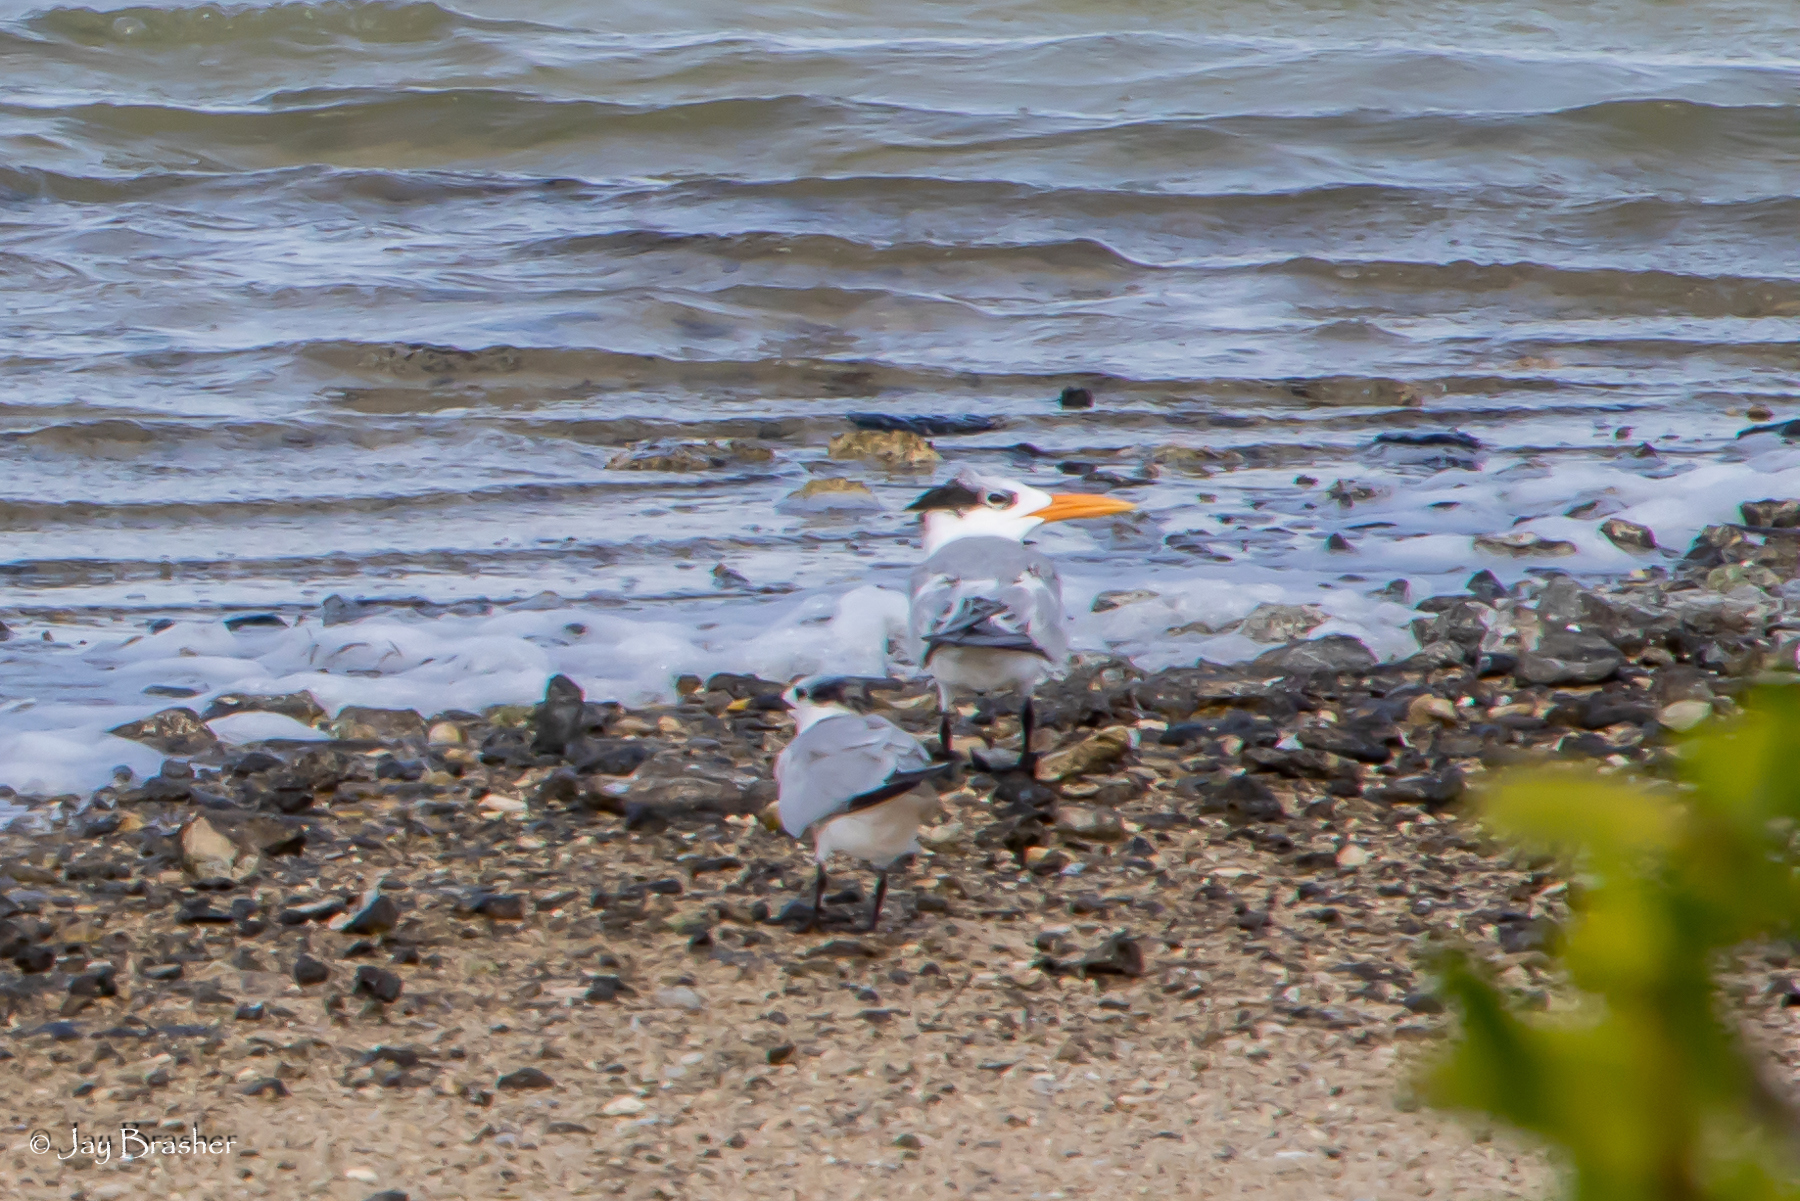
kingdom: Animalia
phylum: Chordata
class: Aves
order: Charadriiformes
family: Laridae
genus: Thalasseus
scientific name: Thalasseus acuflavidus
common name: Cabot's tern
